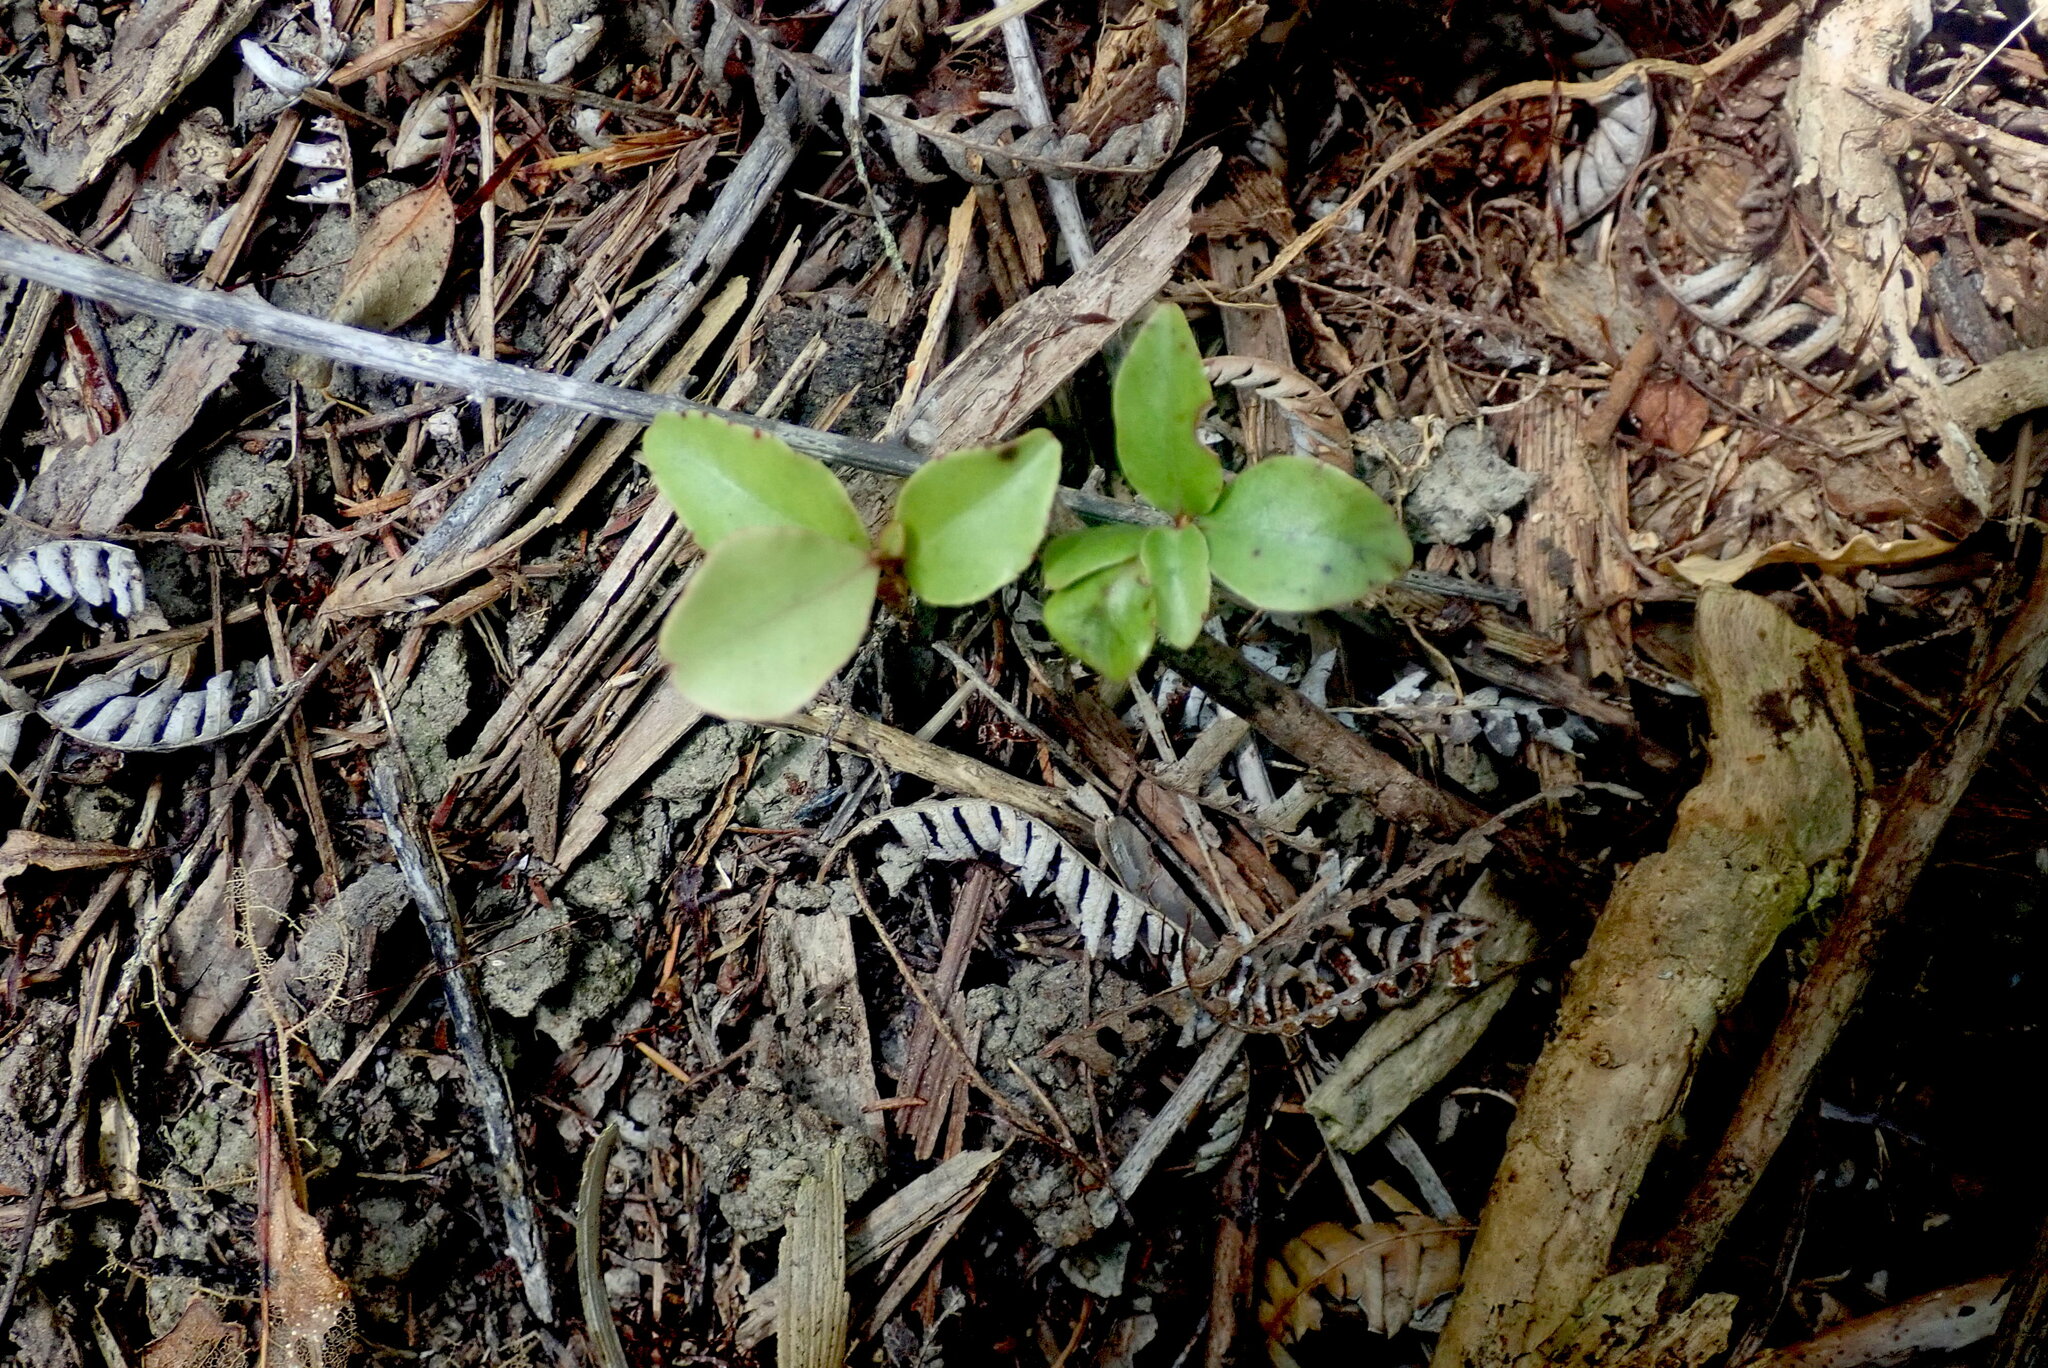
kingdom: Plantae
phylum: Tracheophyta
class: Magnoliopsida
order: Ericales
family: Primulaceae
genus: Myrsine
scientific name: Myrsine australis
